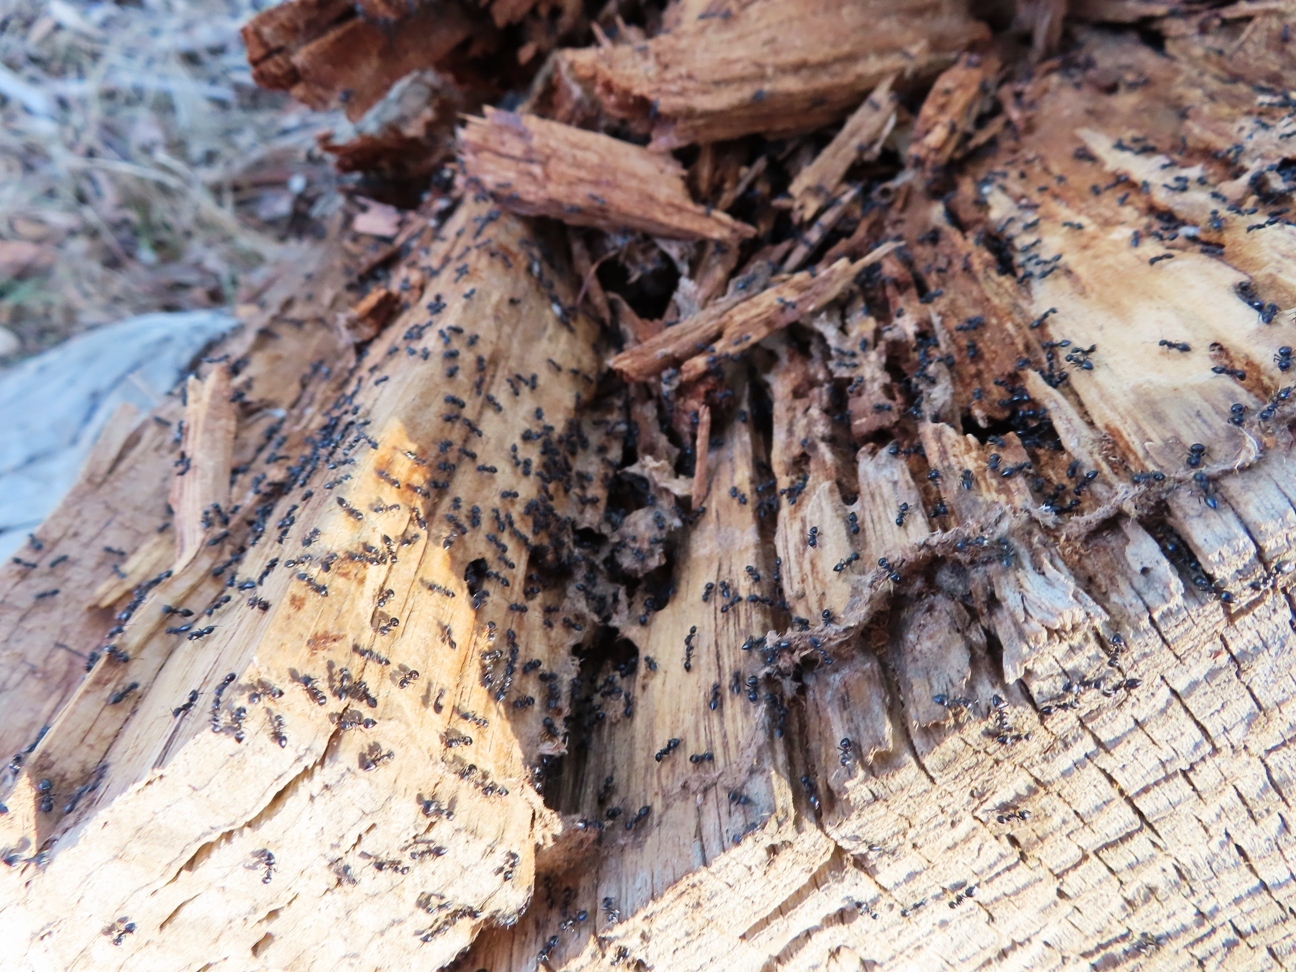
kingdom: Animalia
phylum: Arthropoda
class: Insecta
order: Hymenoptera
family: Formicidae
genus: Crematogaster
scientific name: Crematogaster peringueyi
